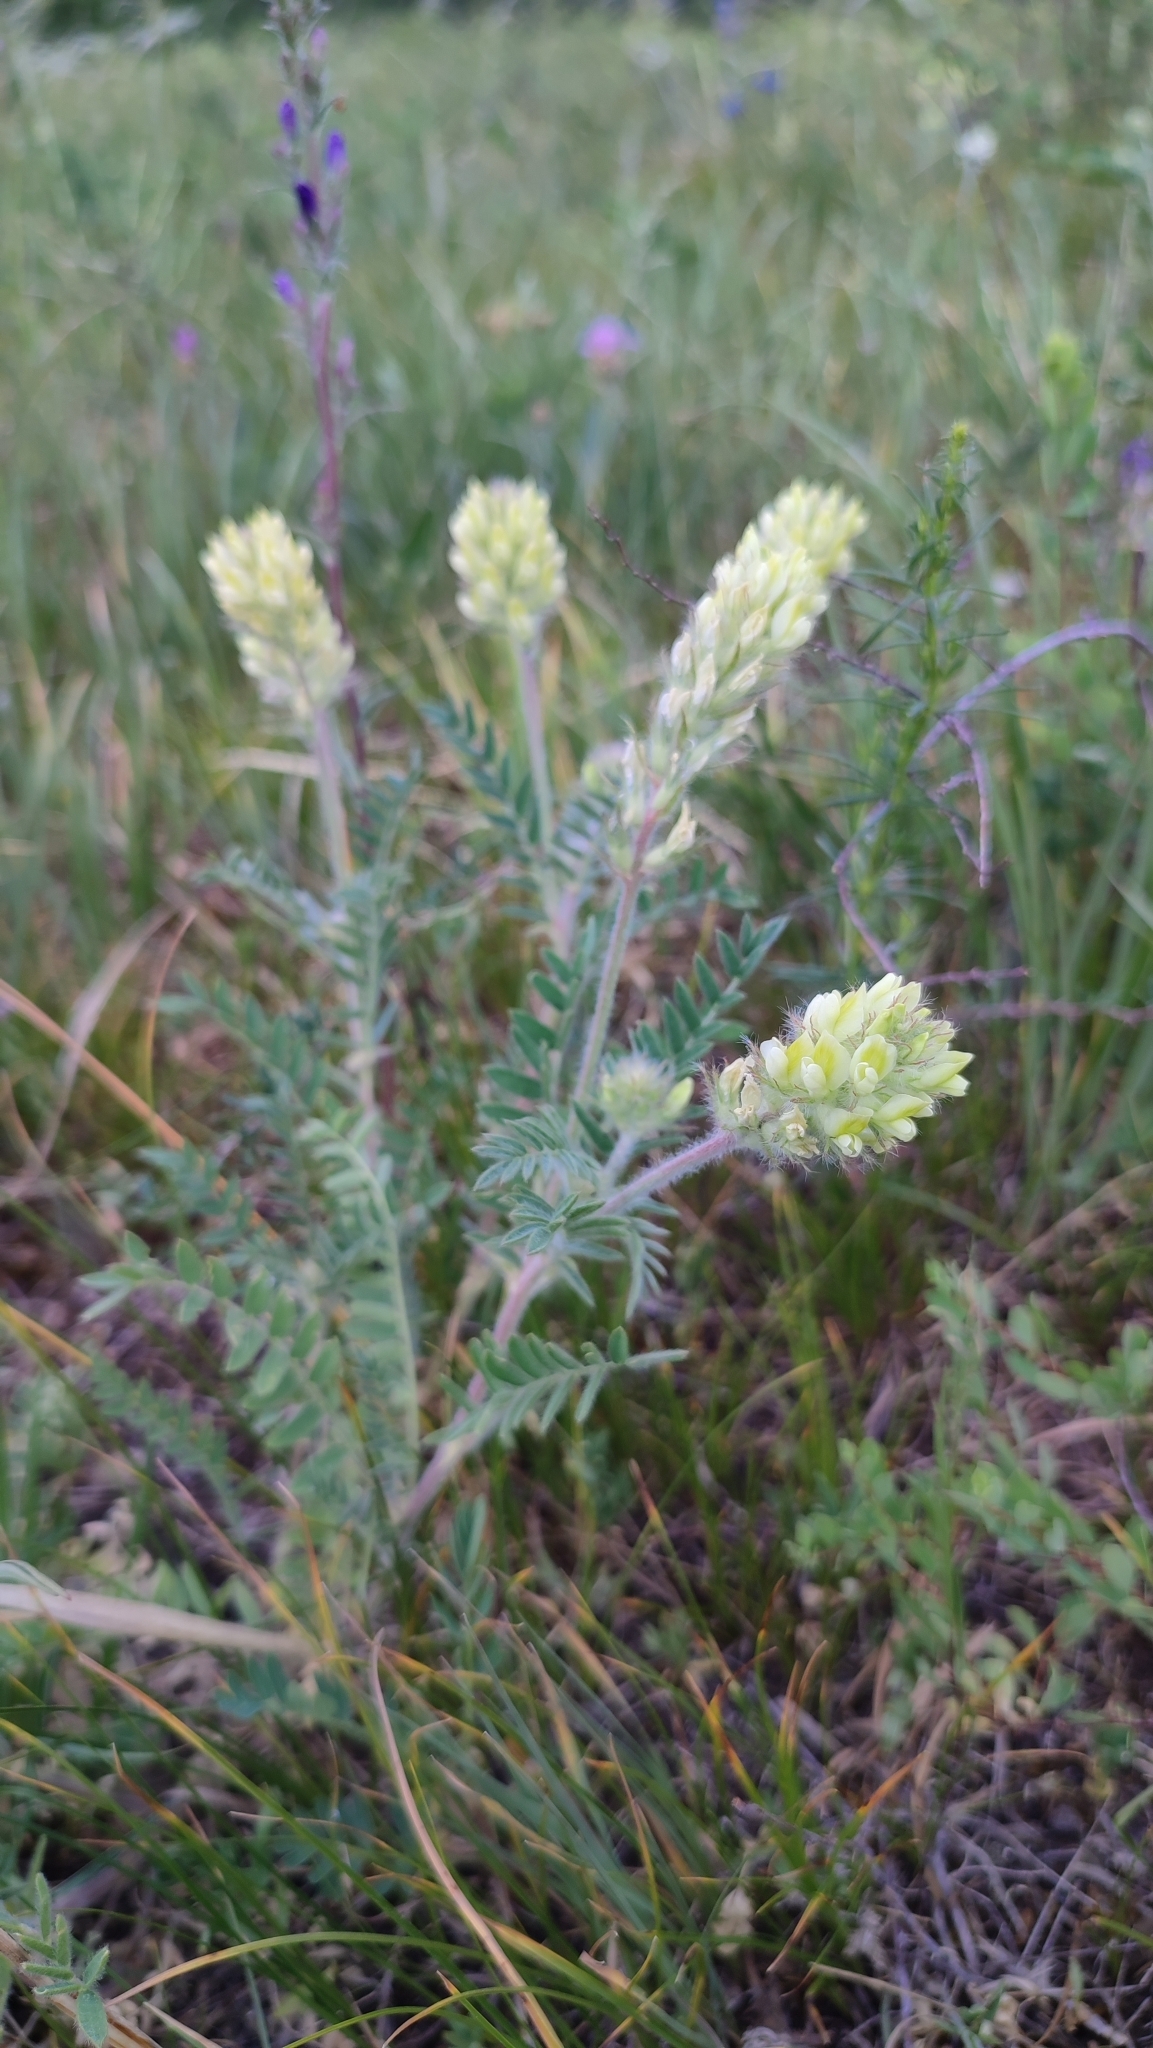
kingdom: Plantae
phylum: Tracheophyta
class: Magnoliopsida
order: Fabales
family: Fabaceae
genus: Oxytropis
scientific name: Oxytropis pilosa
